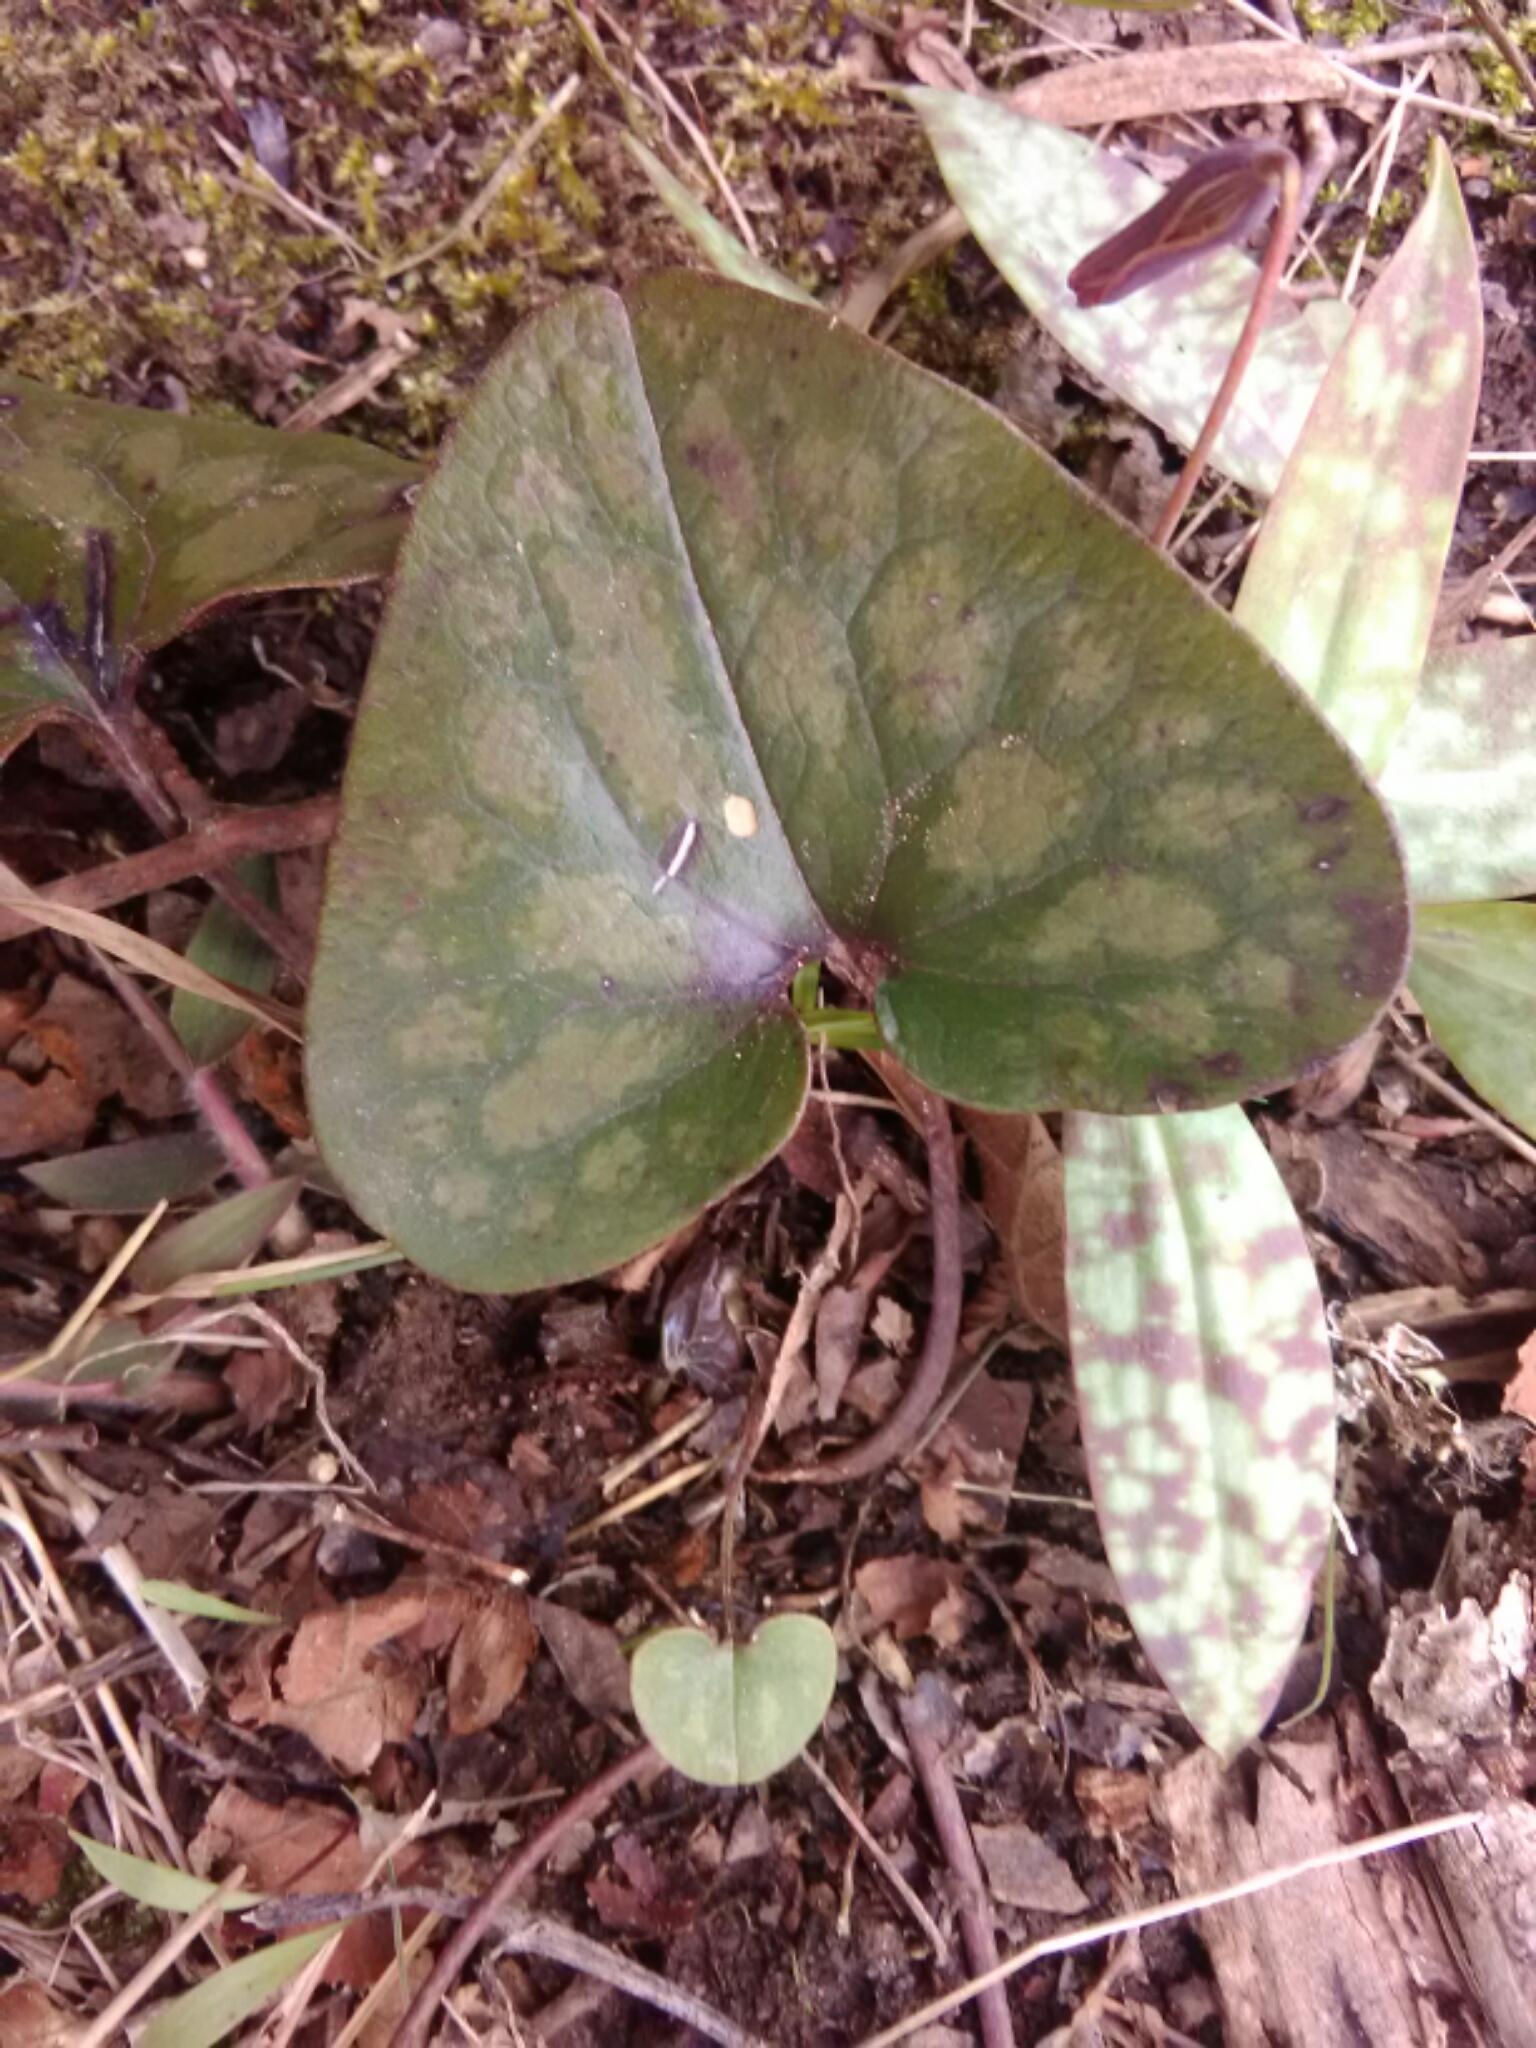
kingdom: Plantae
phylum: Tracheophyta
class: Magnoliopsida
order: Piperales
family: Aristolochiaceae
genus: Hexastylis
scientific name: Hexastylis arifolia
